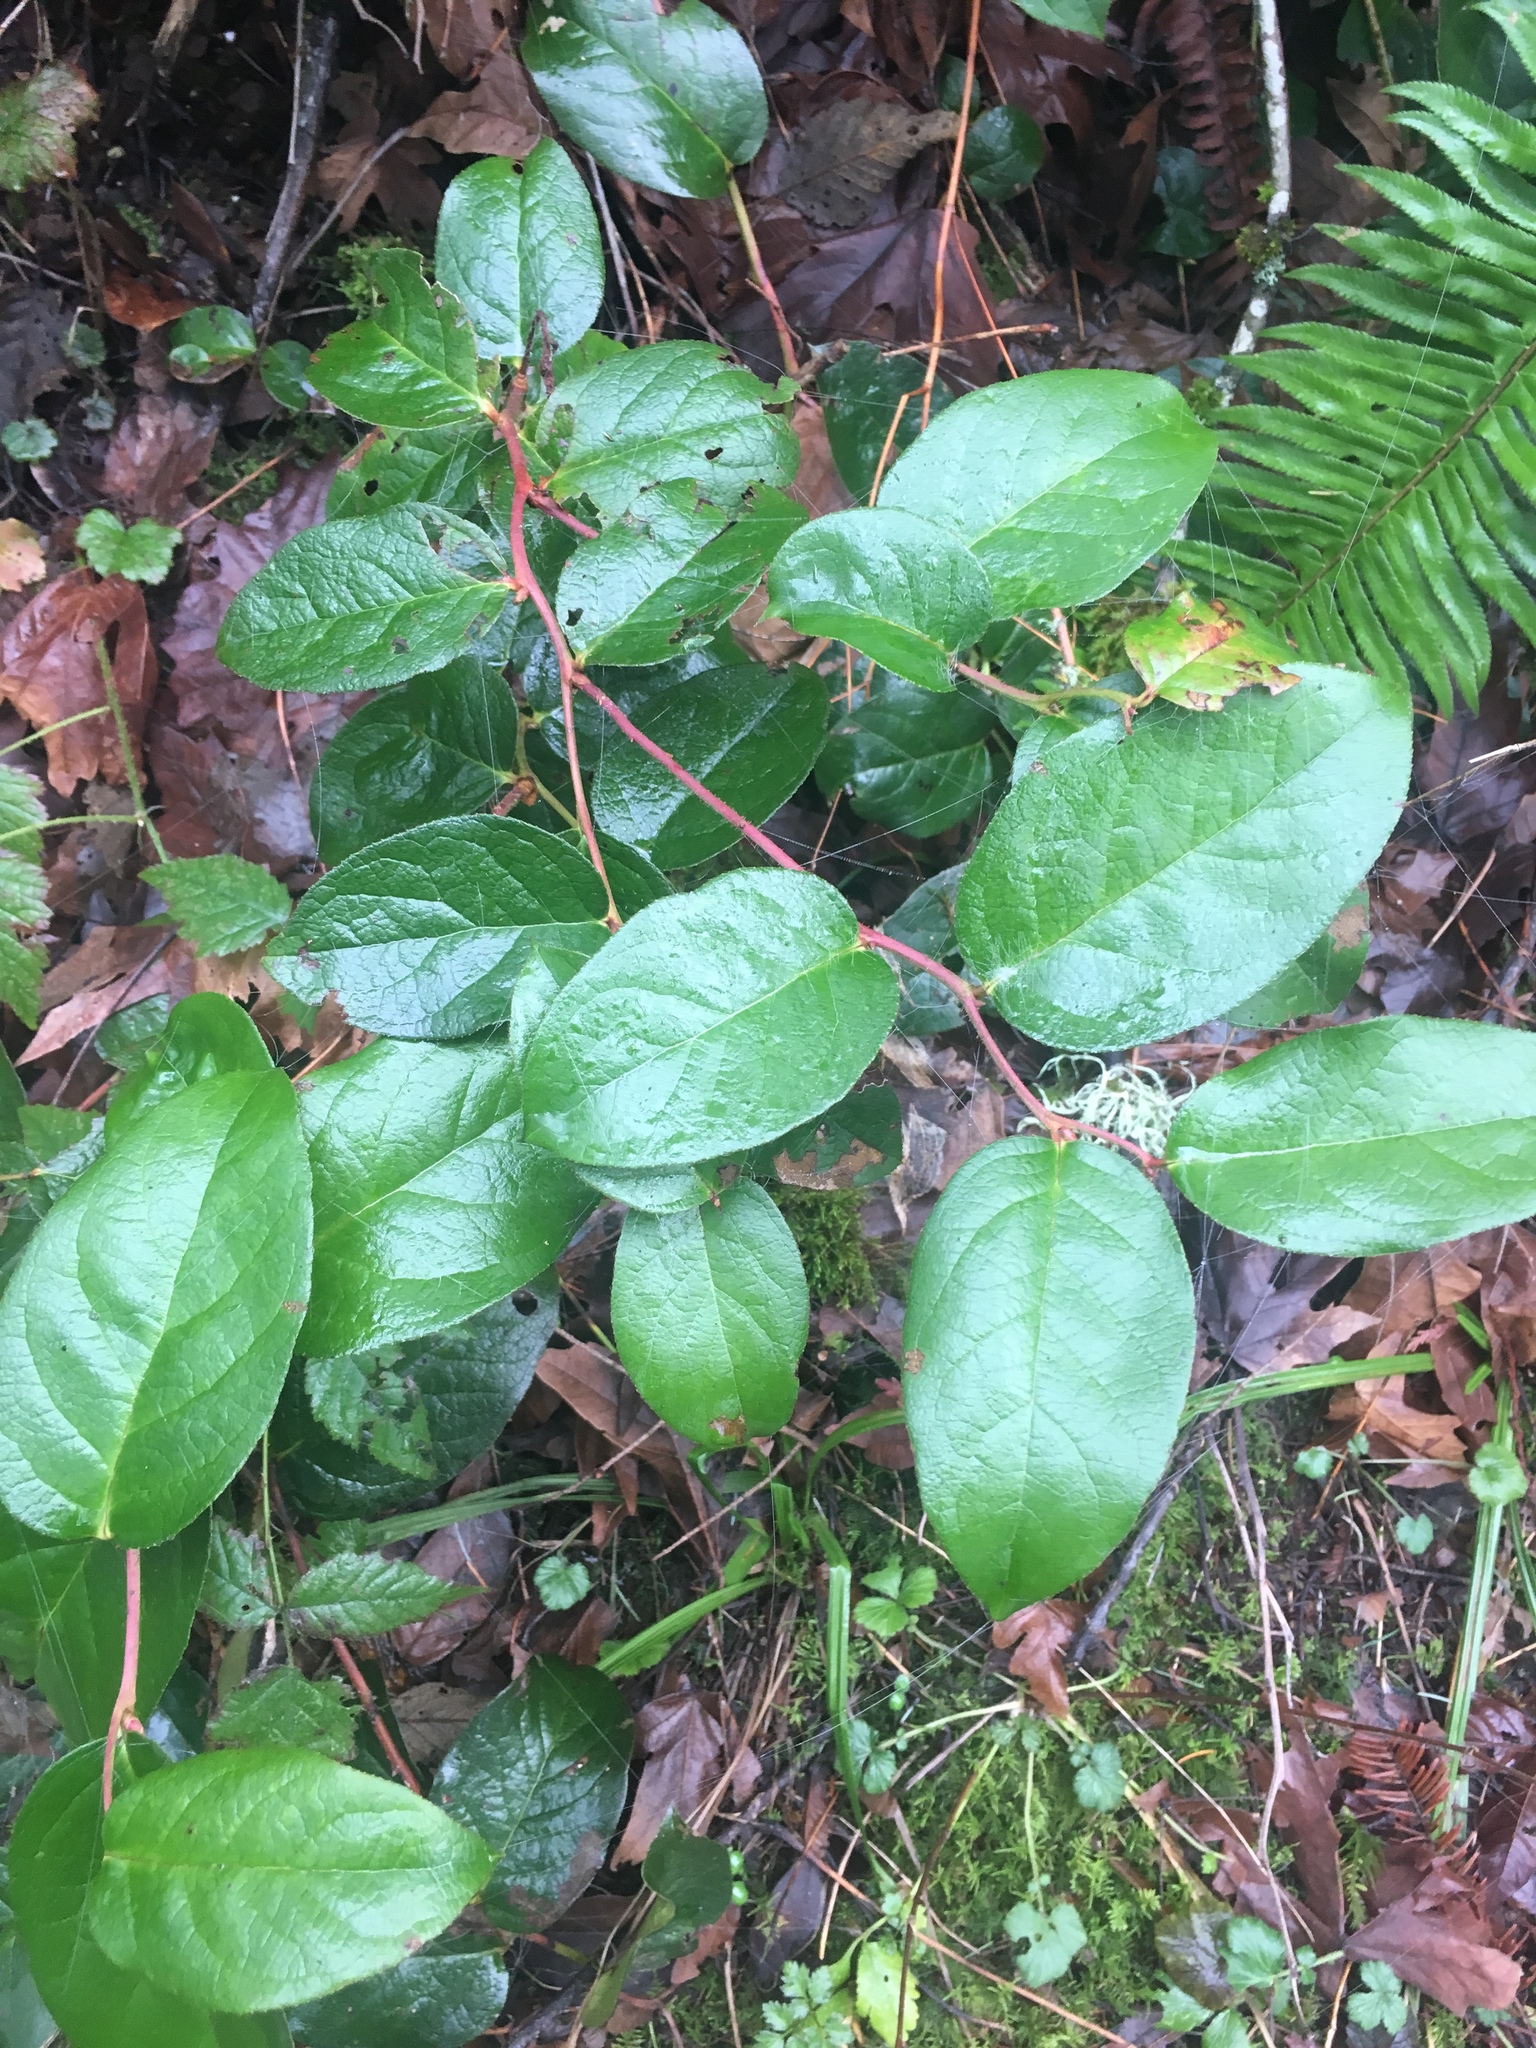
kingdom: Plantae
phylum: Tracheophyta
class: Magnoliopsida
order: Ericales
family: Ericaceae
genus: Gaultheria
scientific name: Gaultheria shallon
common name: Shallon
